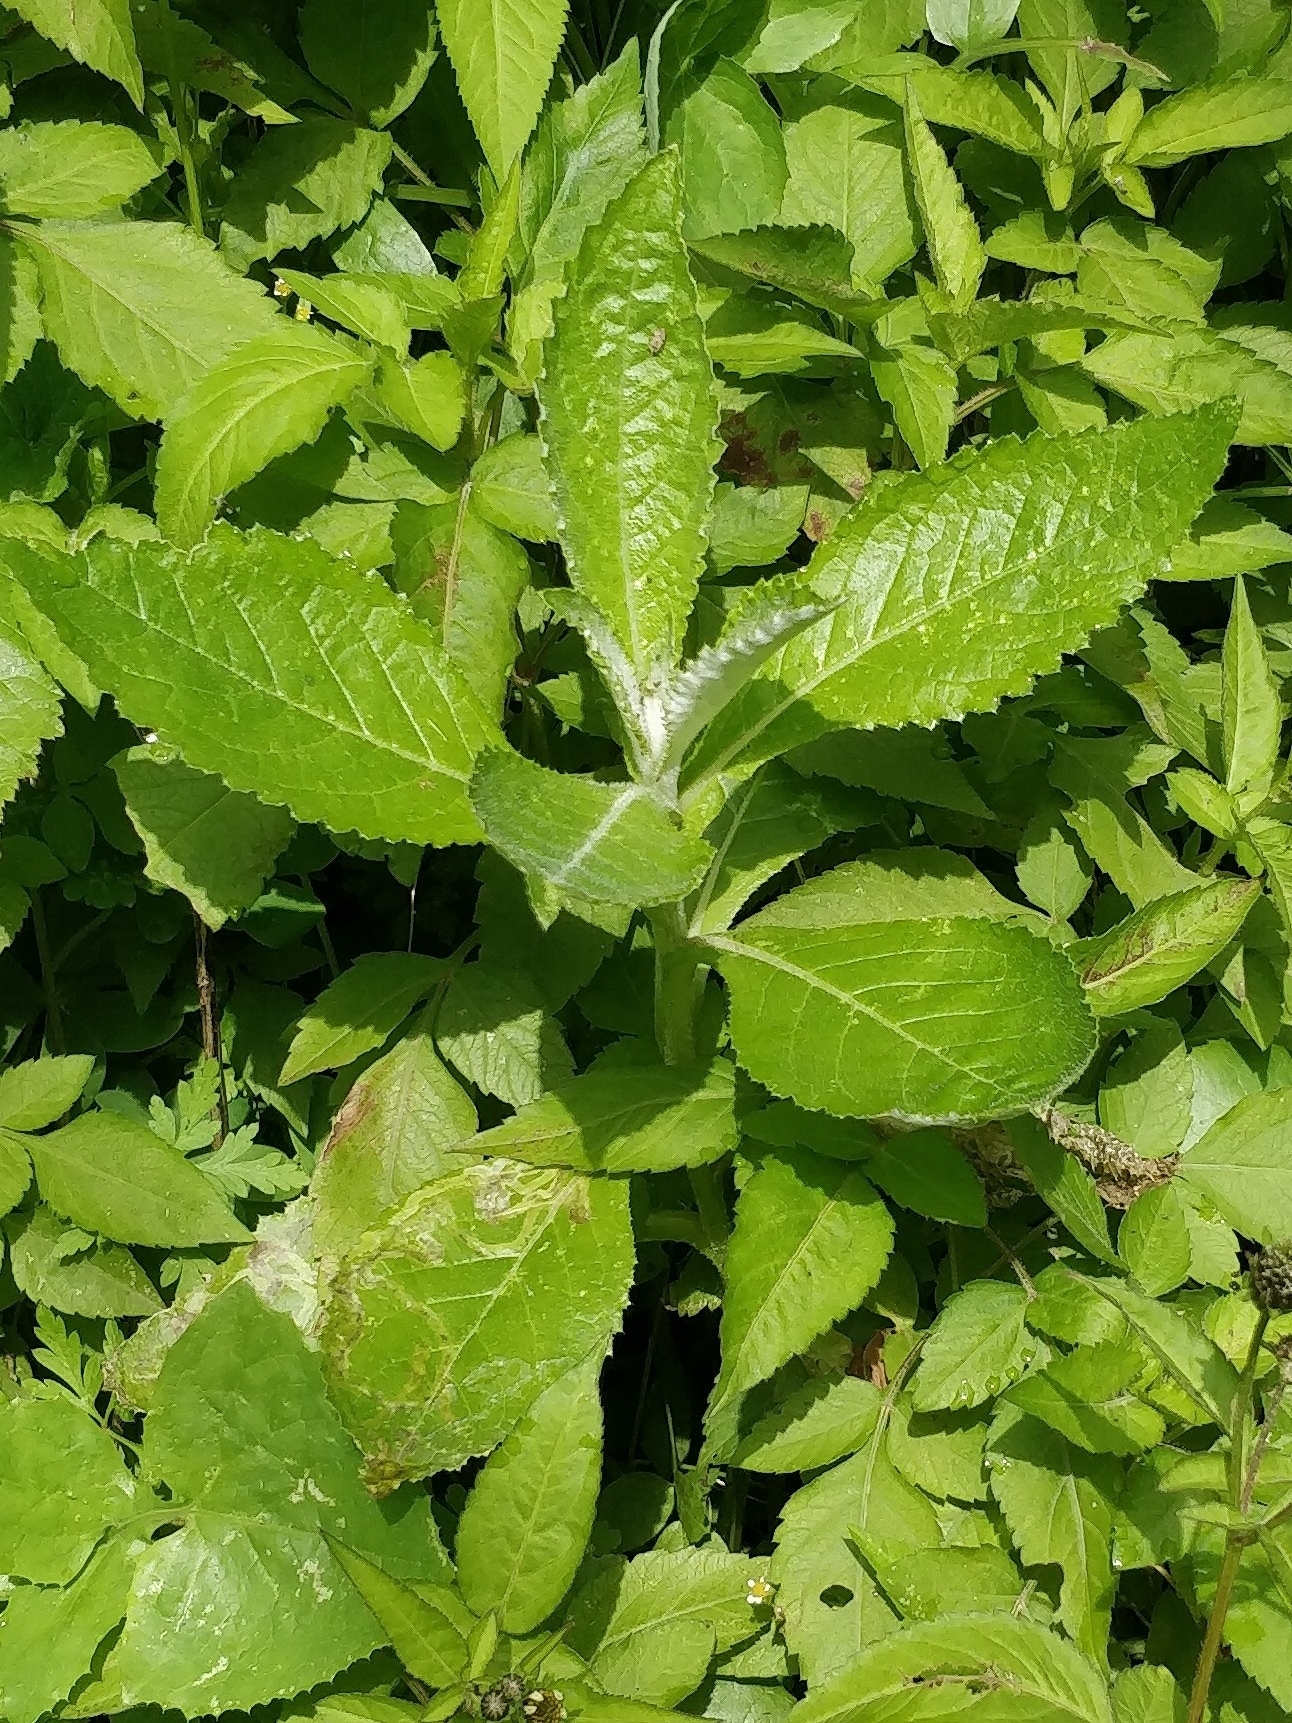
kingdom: Plantae
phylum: Tracheophyta
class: Magnoliopsida
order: Asterales
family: Asteraceae
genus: Carduus
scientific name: Carduus squarrosus
